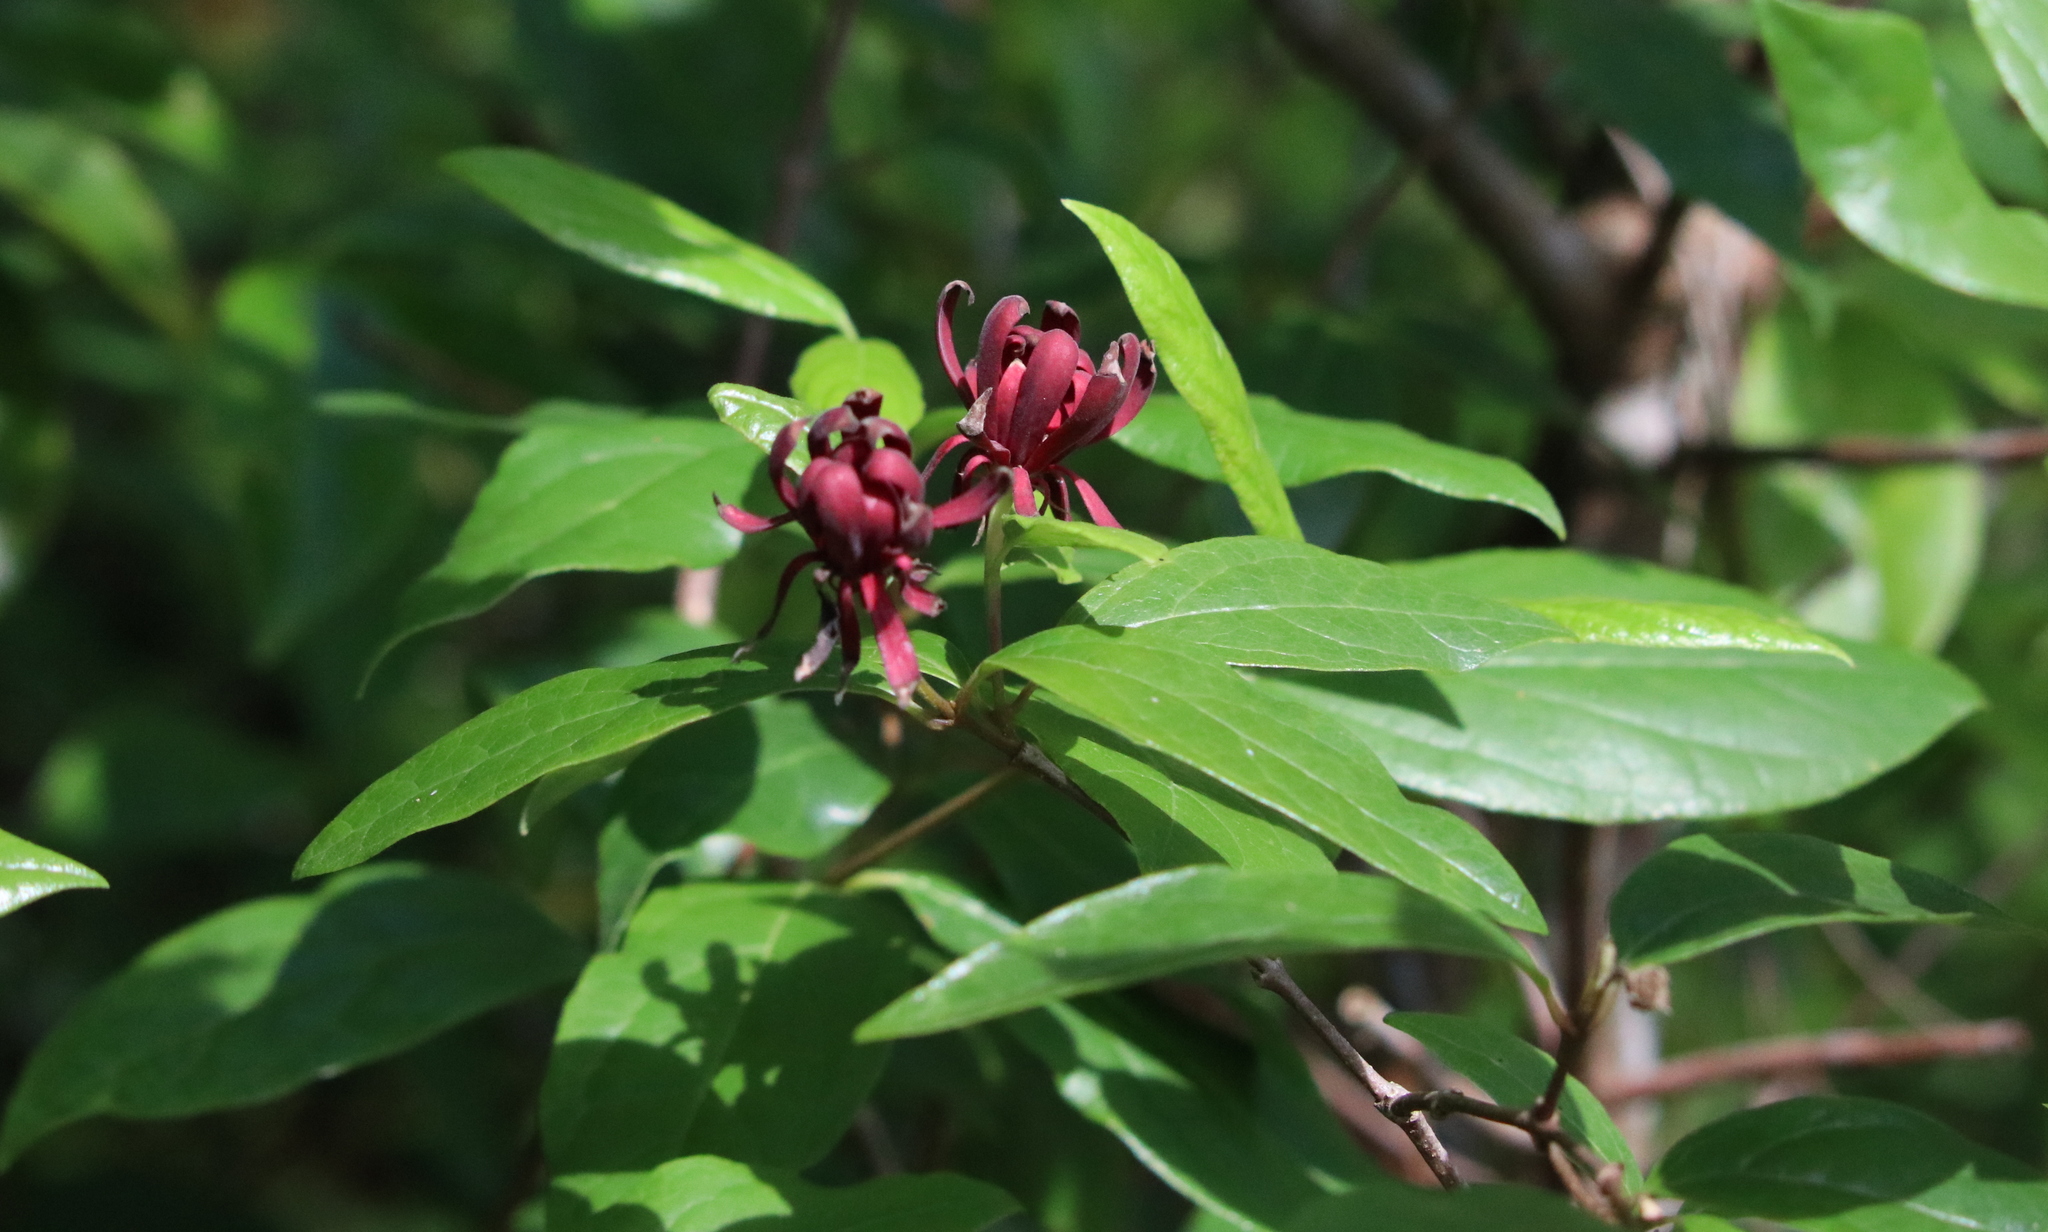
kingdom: Plantae
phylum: Tracheophyta
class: Magnoliopsida
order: Laurales
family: Calycanthaceae
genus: Calycanthus
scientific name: Calycanthus floridus
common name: Carolina-allspice
